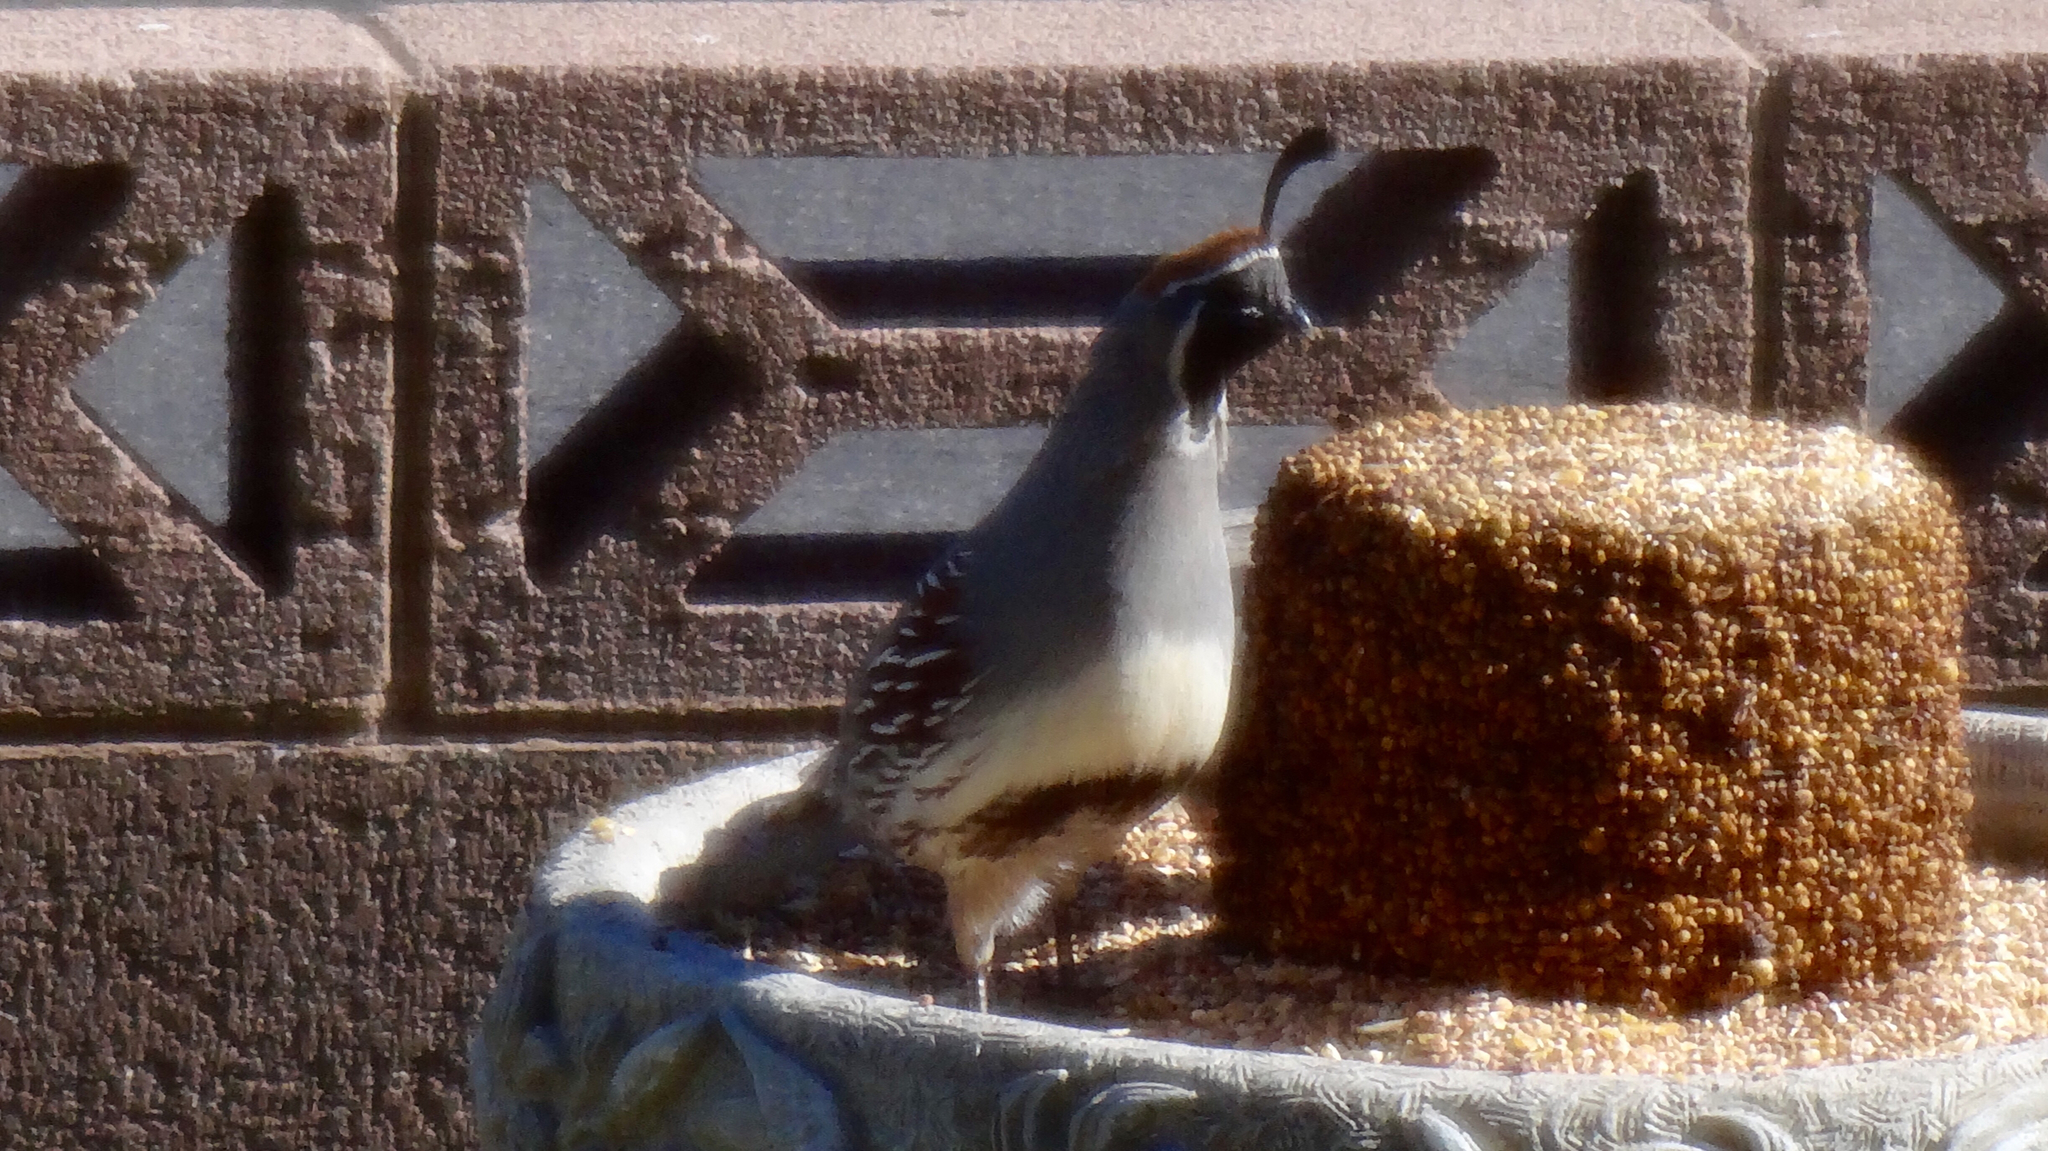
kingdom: Animalia
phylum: Chordata
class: Aves
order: Galliformes
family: Odontophoridae
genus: Callipepla
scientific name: Callipepla gambelii
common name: Gambel's quail
